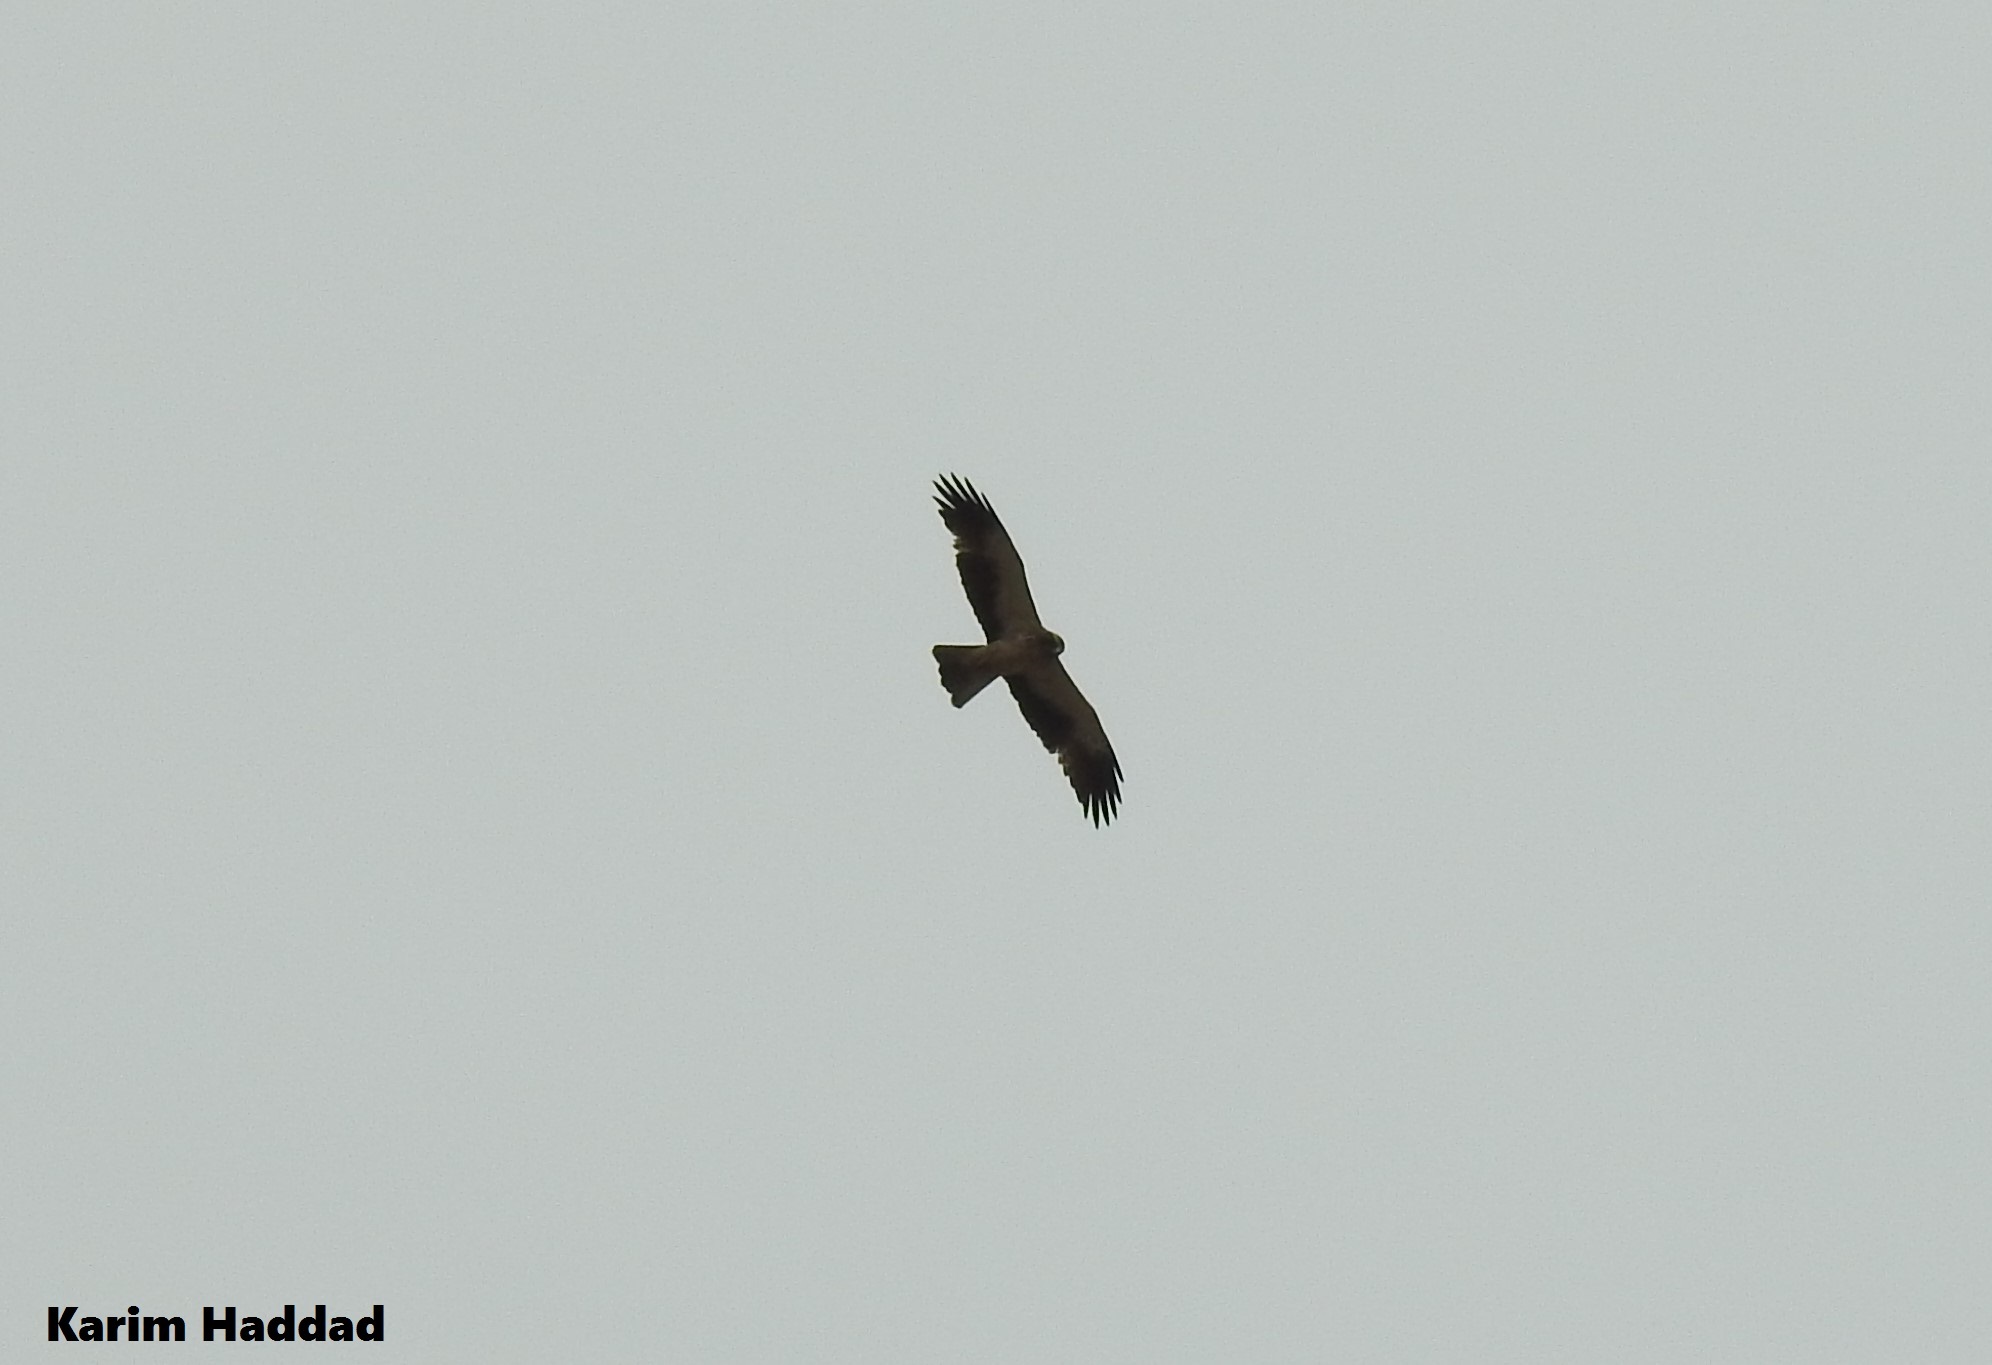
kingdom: Animalia
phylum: Chordata
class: Aves
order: Accipitriformes
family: Accipitridae
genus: Hieraaetus
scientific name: Hieraaetus pennatus
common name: Booted eagle
